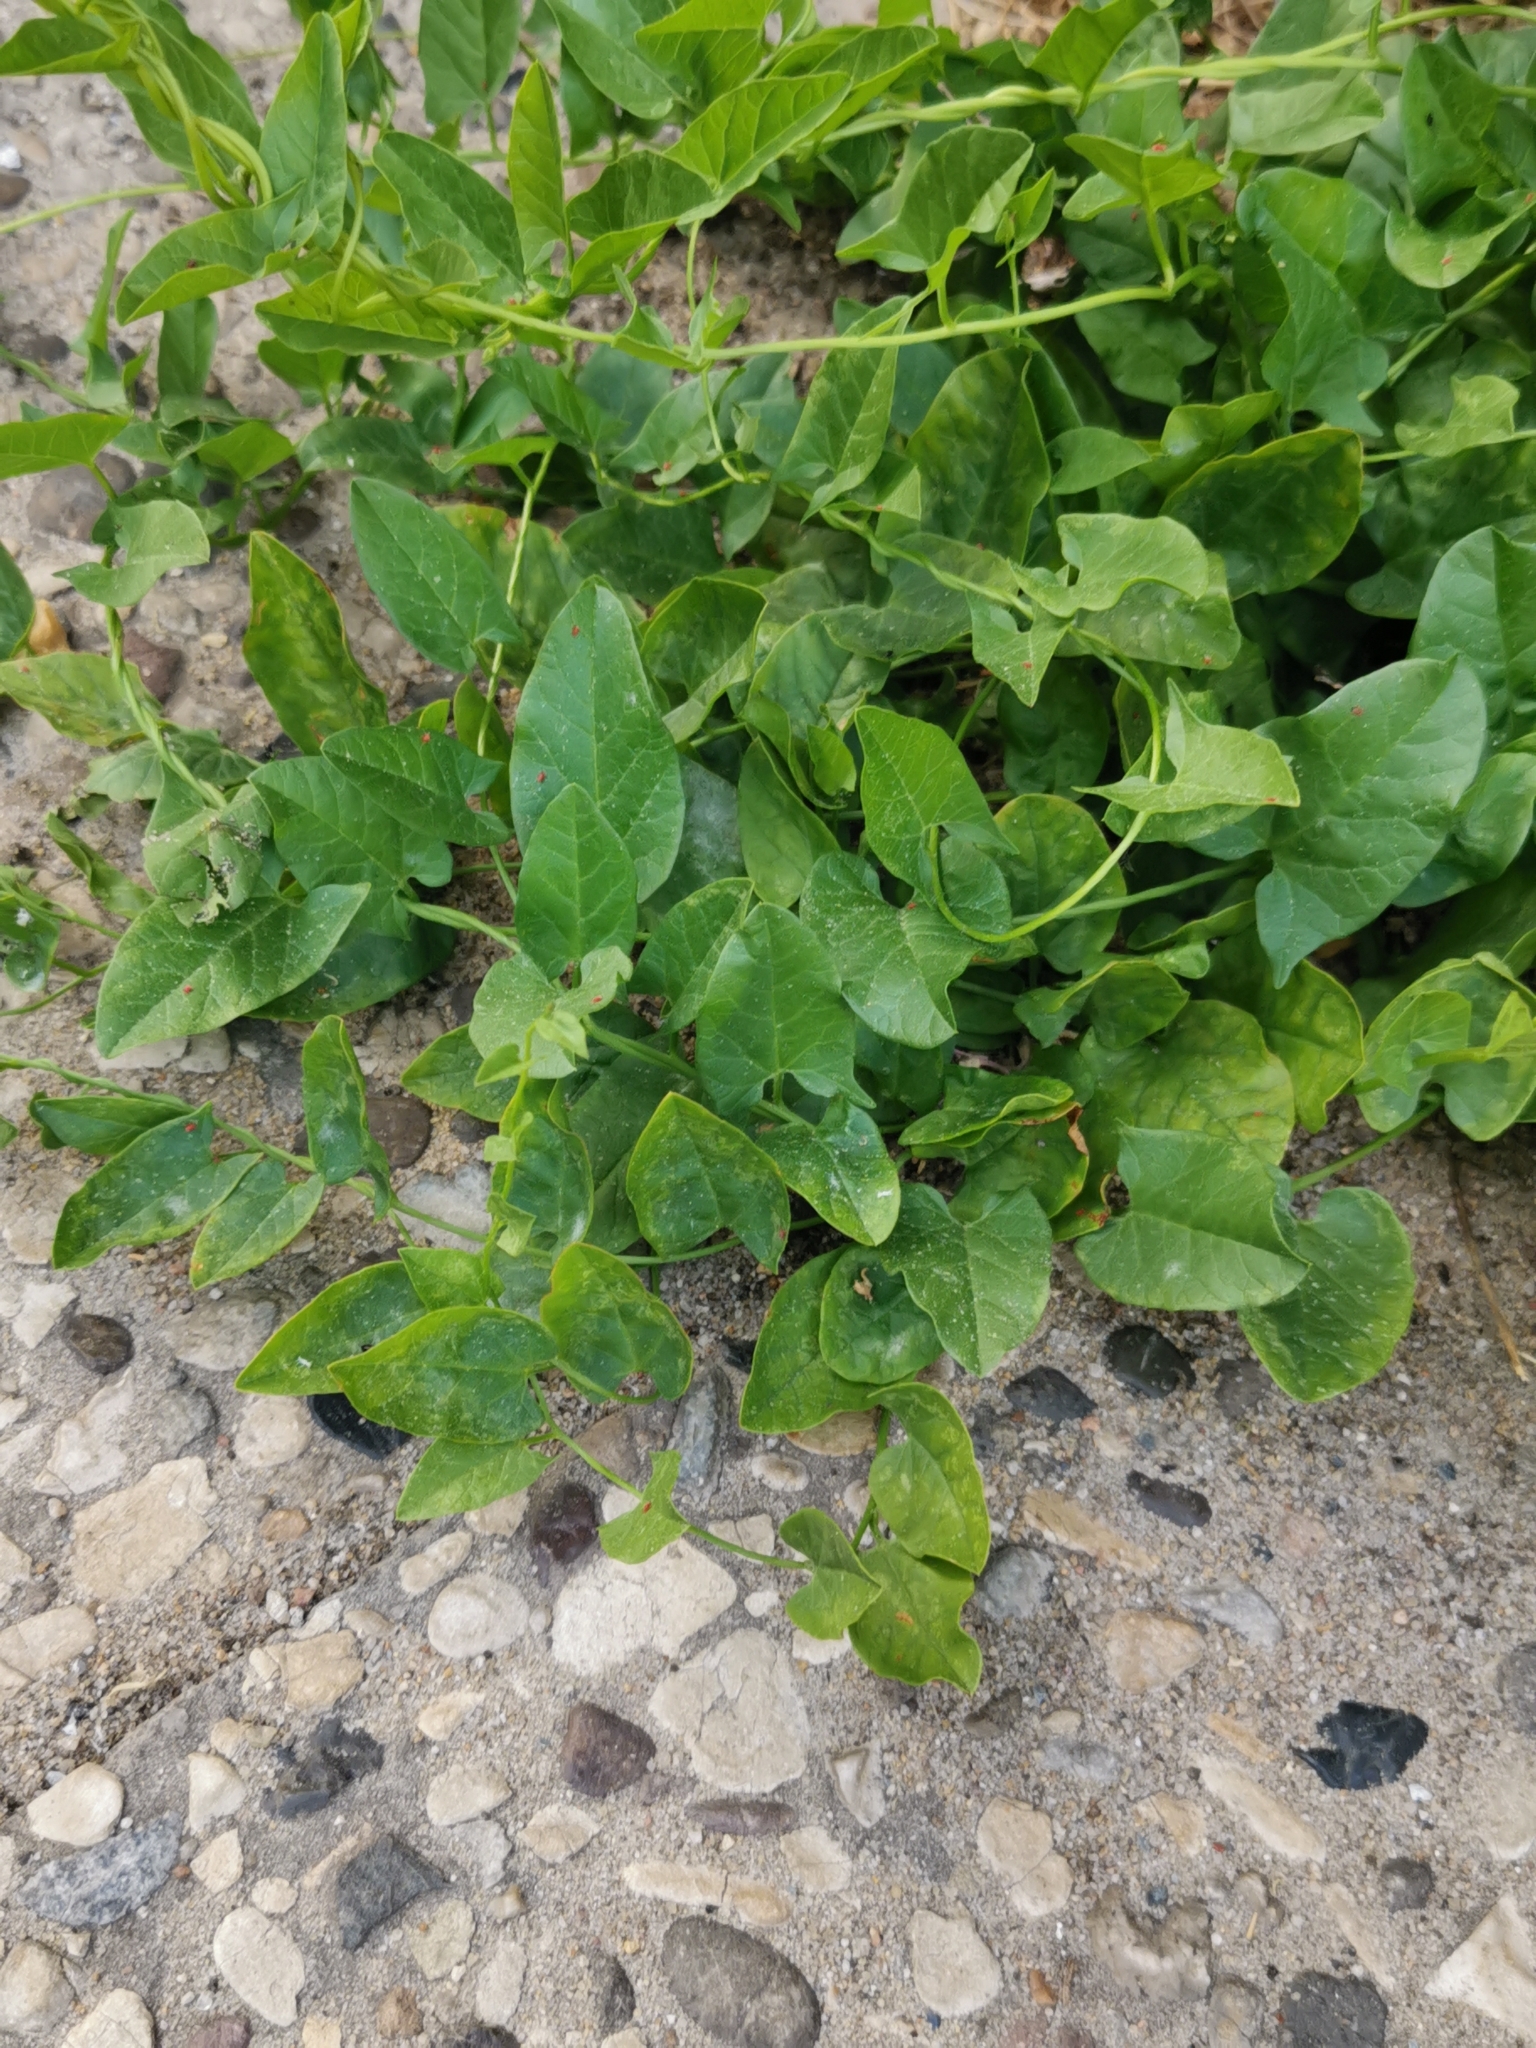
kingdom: Plantae
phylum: Tracheophyta
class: Magnoliopsida
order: Solanales
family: Convolvulaceae
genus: Convolvulus
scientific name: Convolvulus arvensis
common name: Field bindweed
